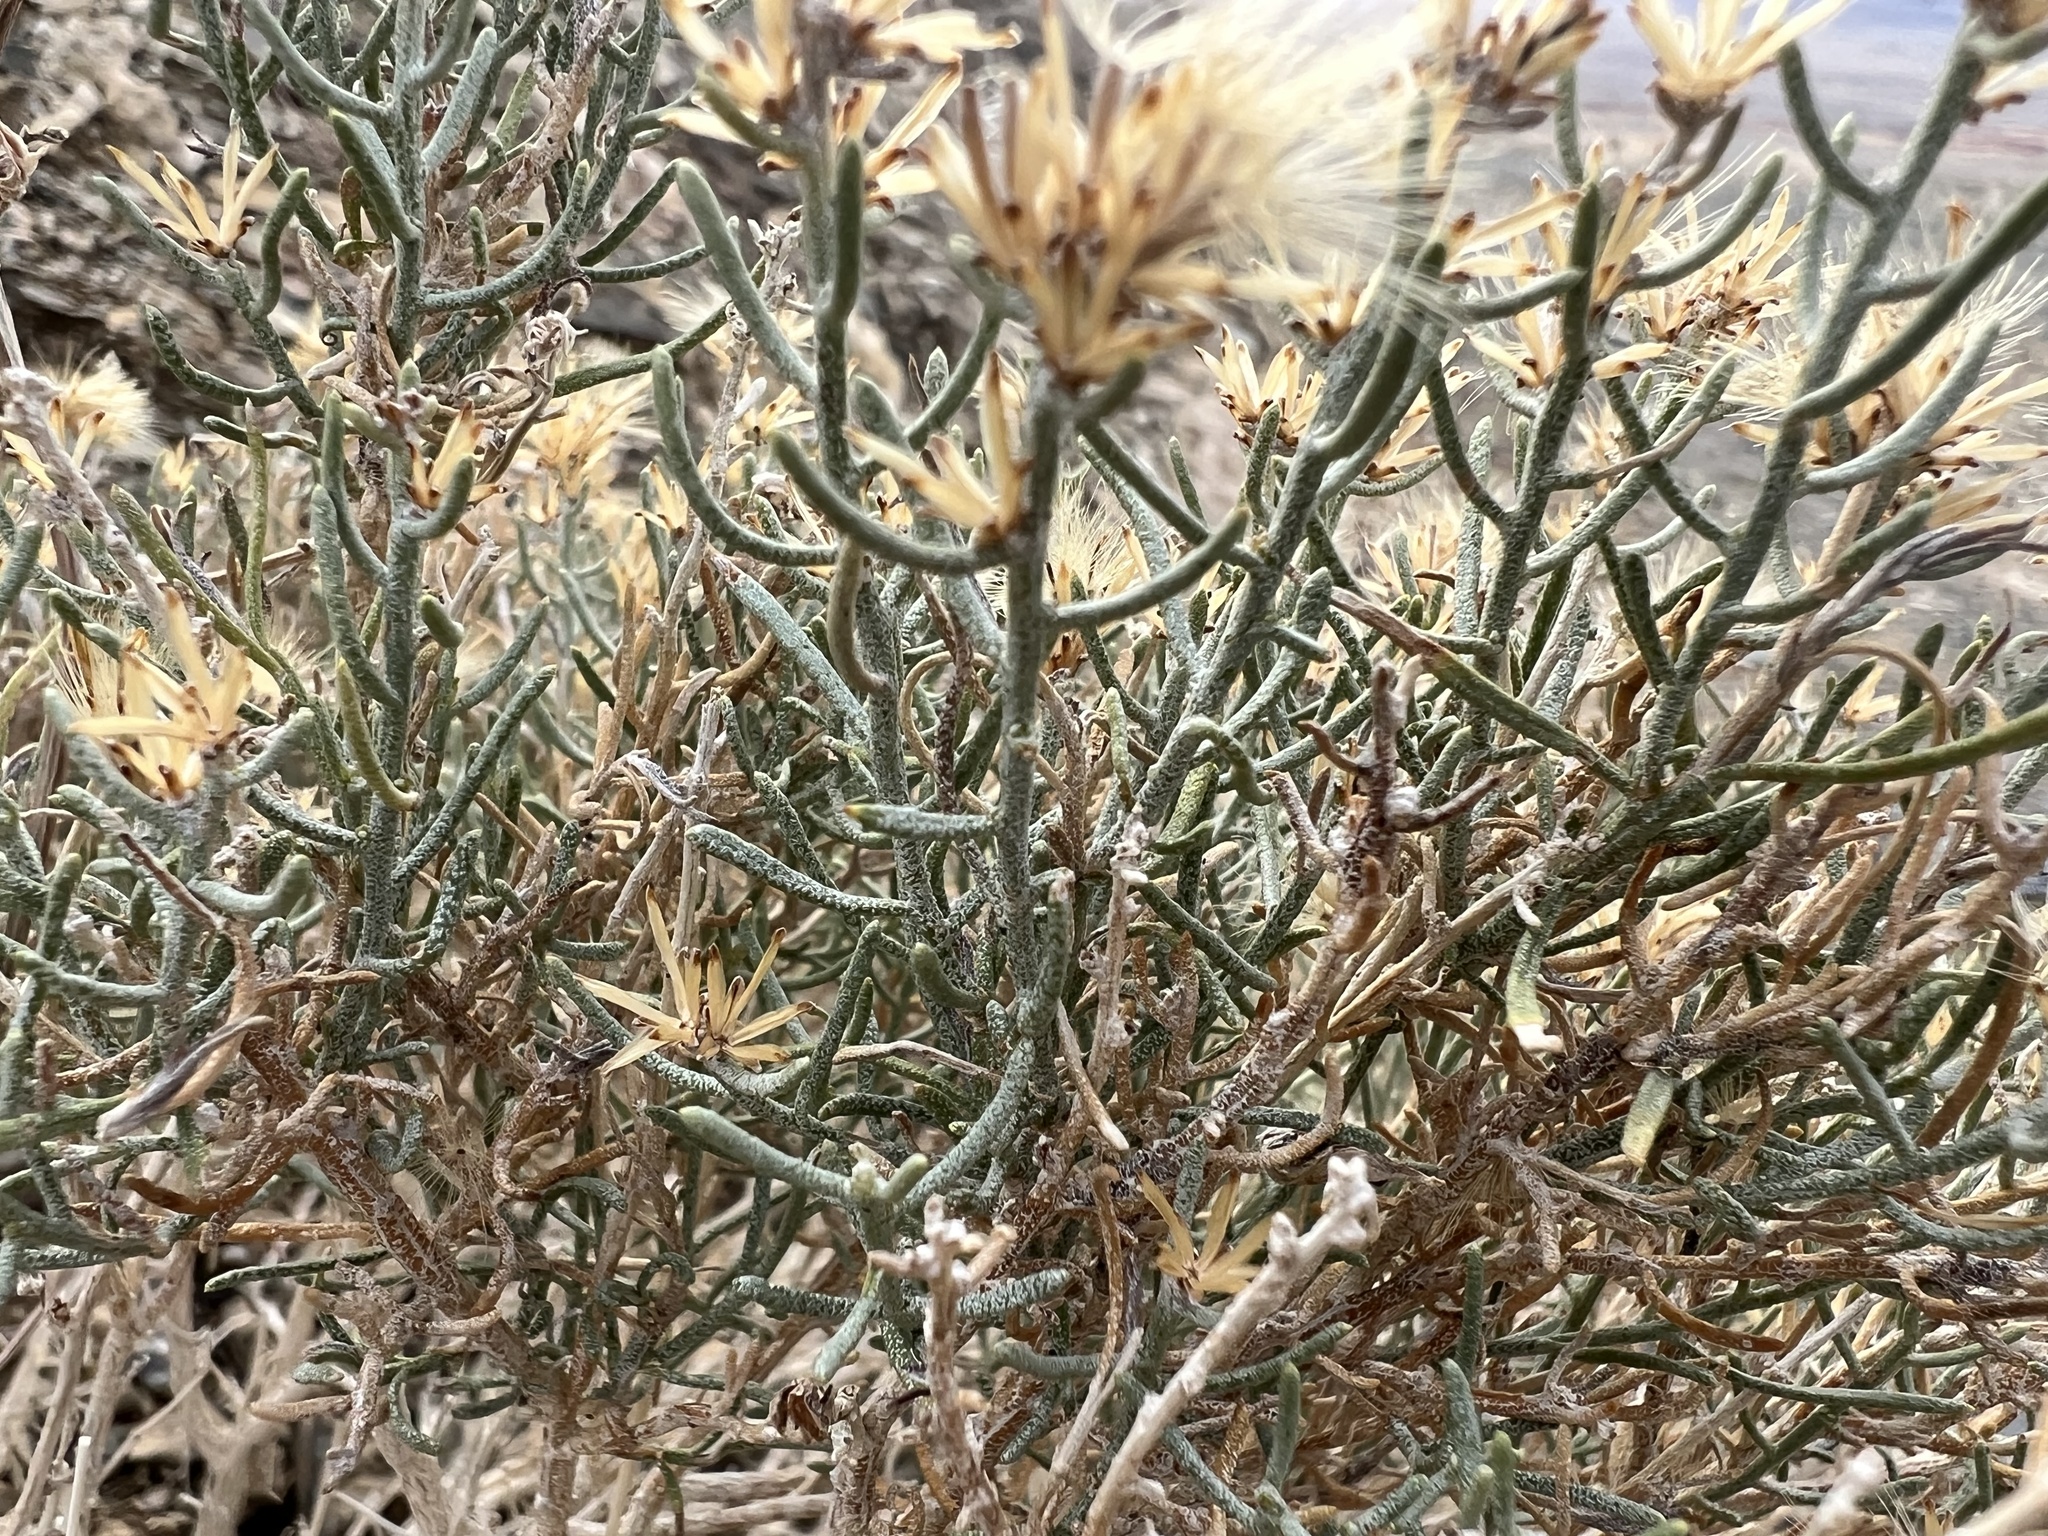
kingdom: Plantae
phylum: Tracheophyta
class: Magnoliopsida
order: Asterales
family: Asteraceae
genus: Ericameria
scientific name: Ericameria teretifolia
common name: Round-leaf rabbitbrush
